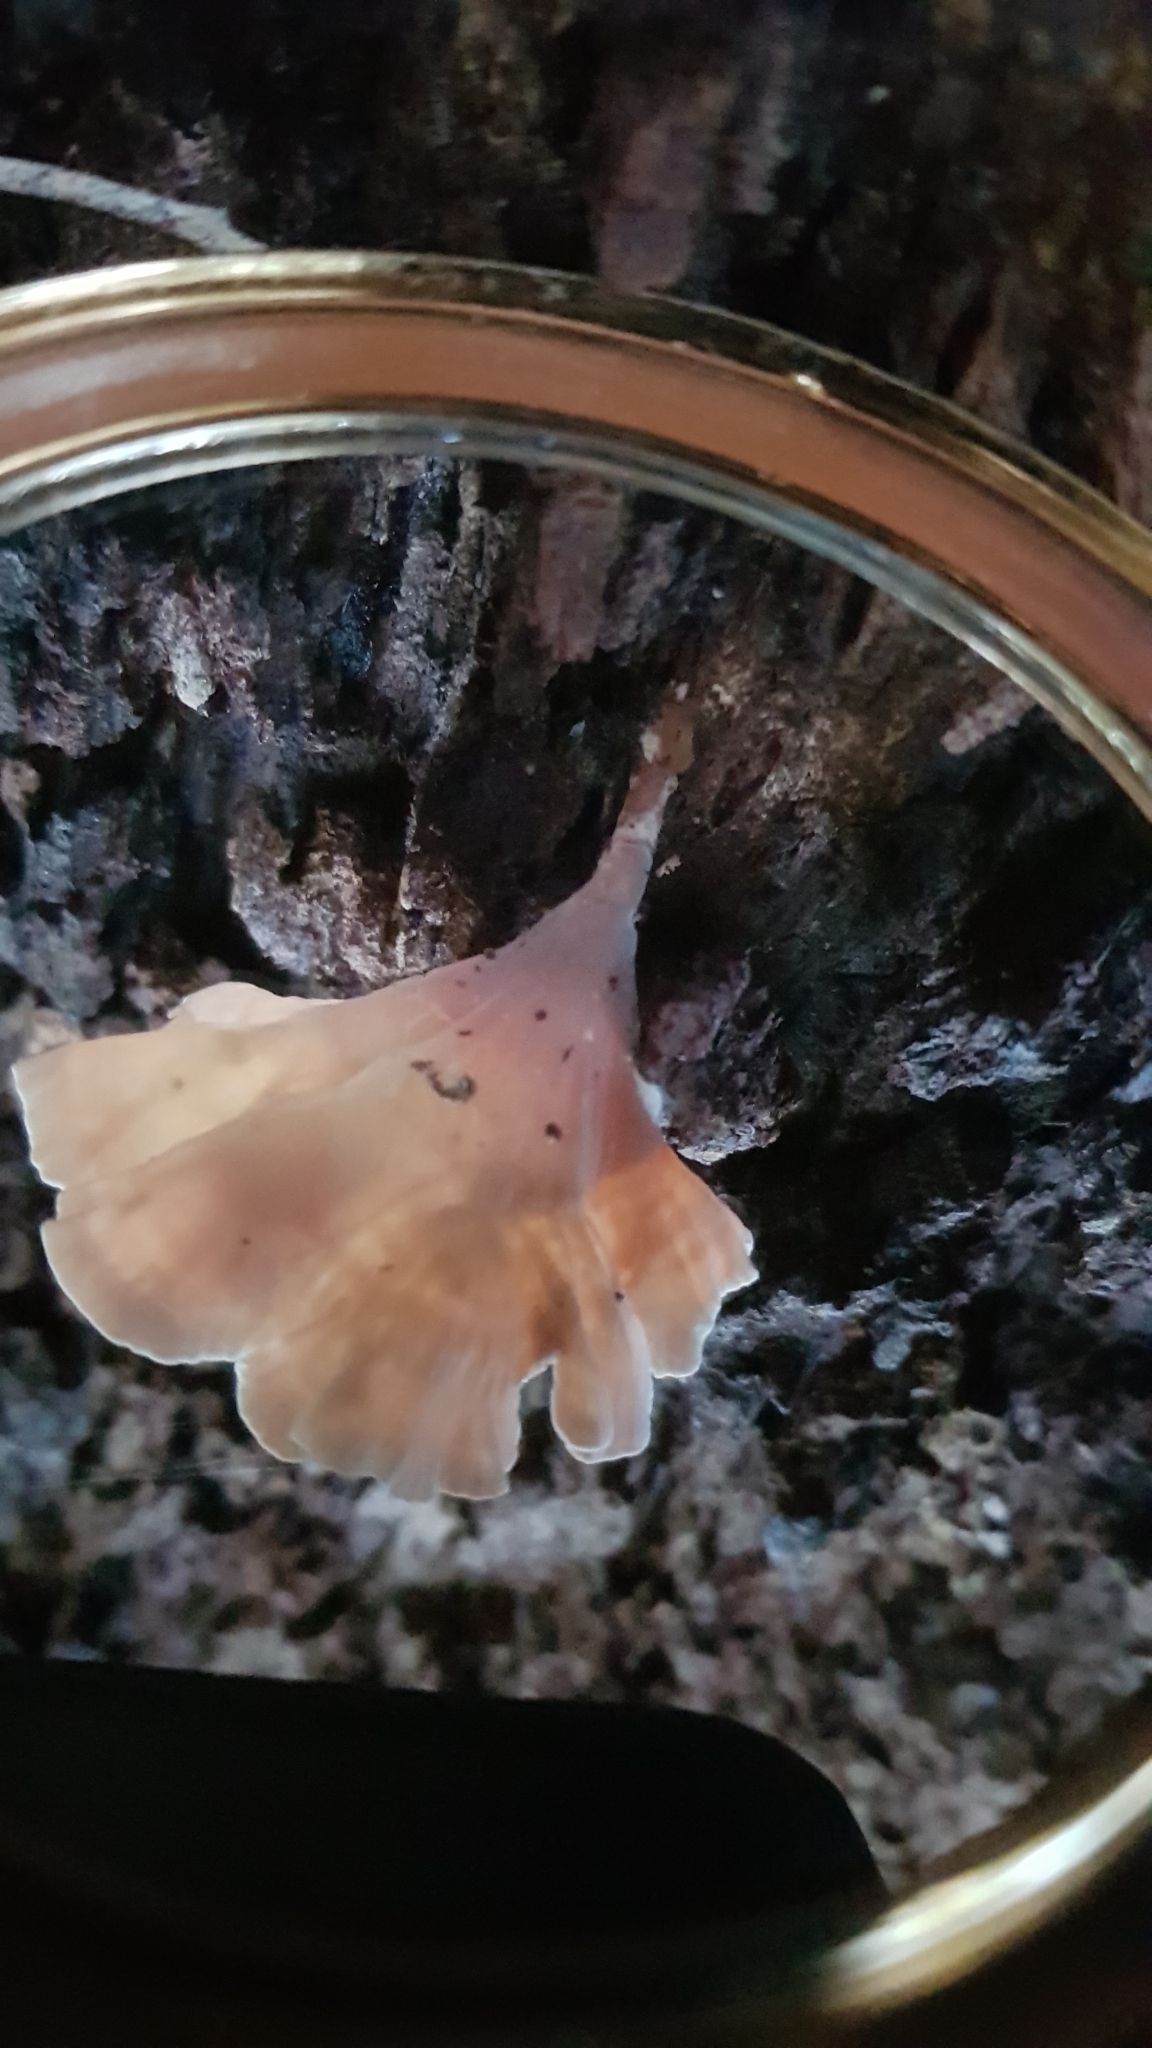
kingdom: Fungi
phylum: Basidiomycota
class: Agaricomycetes
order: Polyporales
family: Podoscyphaceae
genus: Podoscypha
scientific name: Podoscypha petalodes
